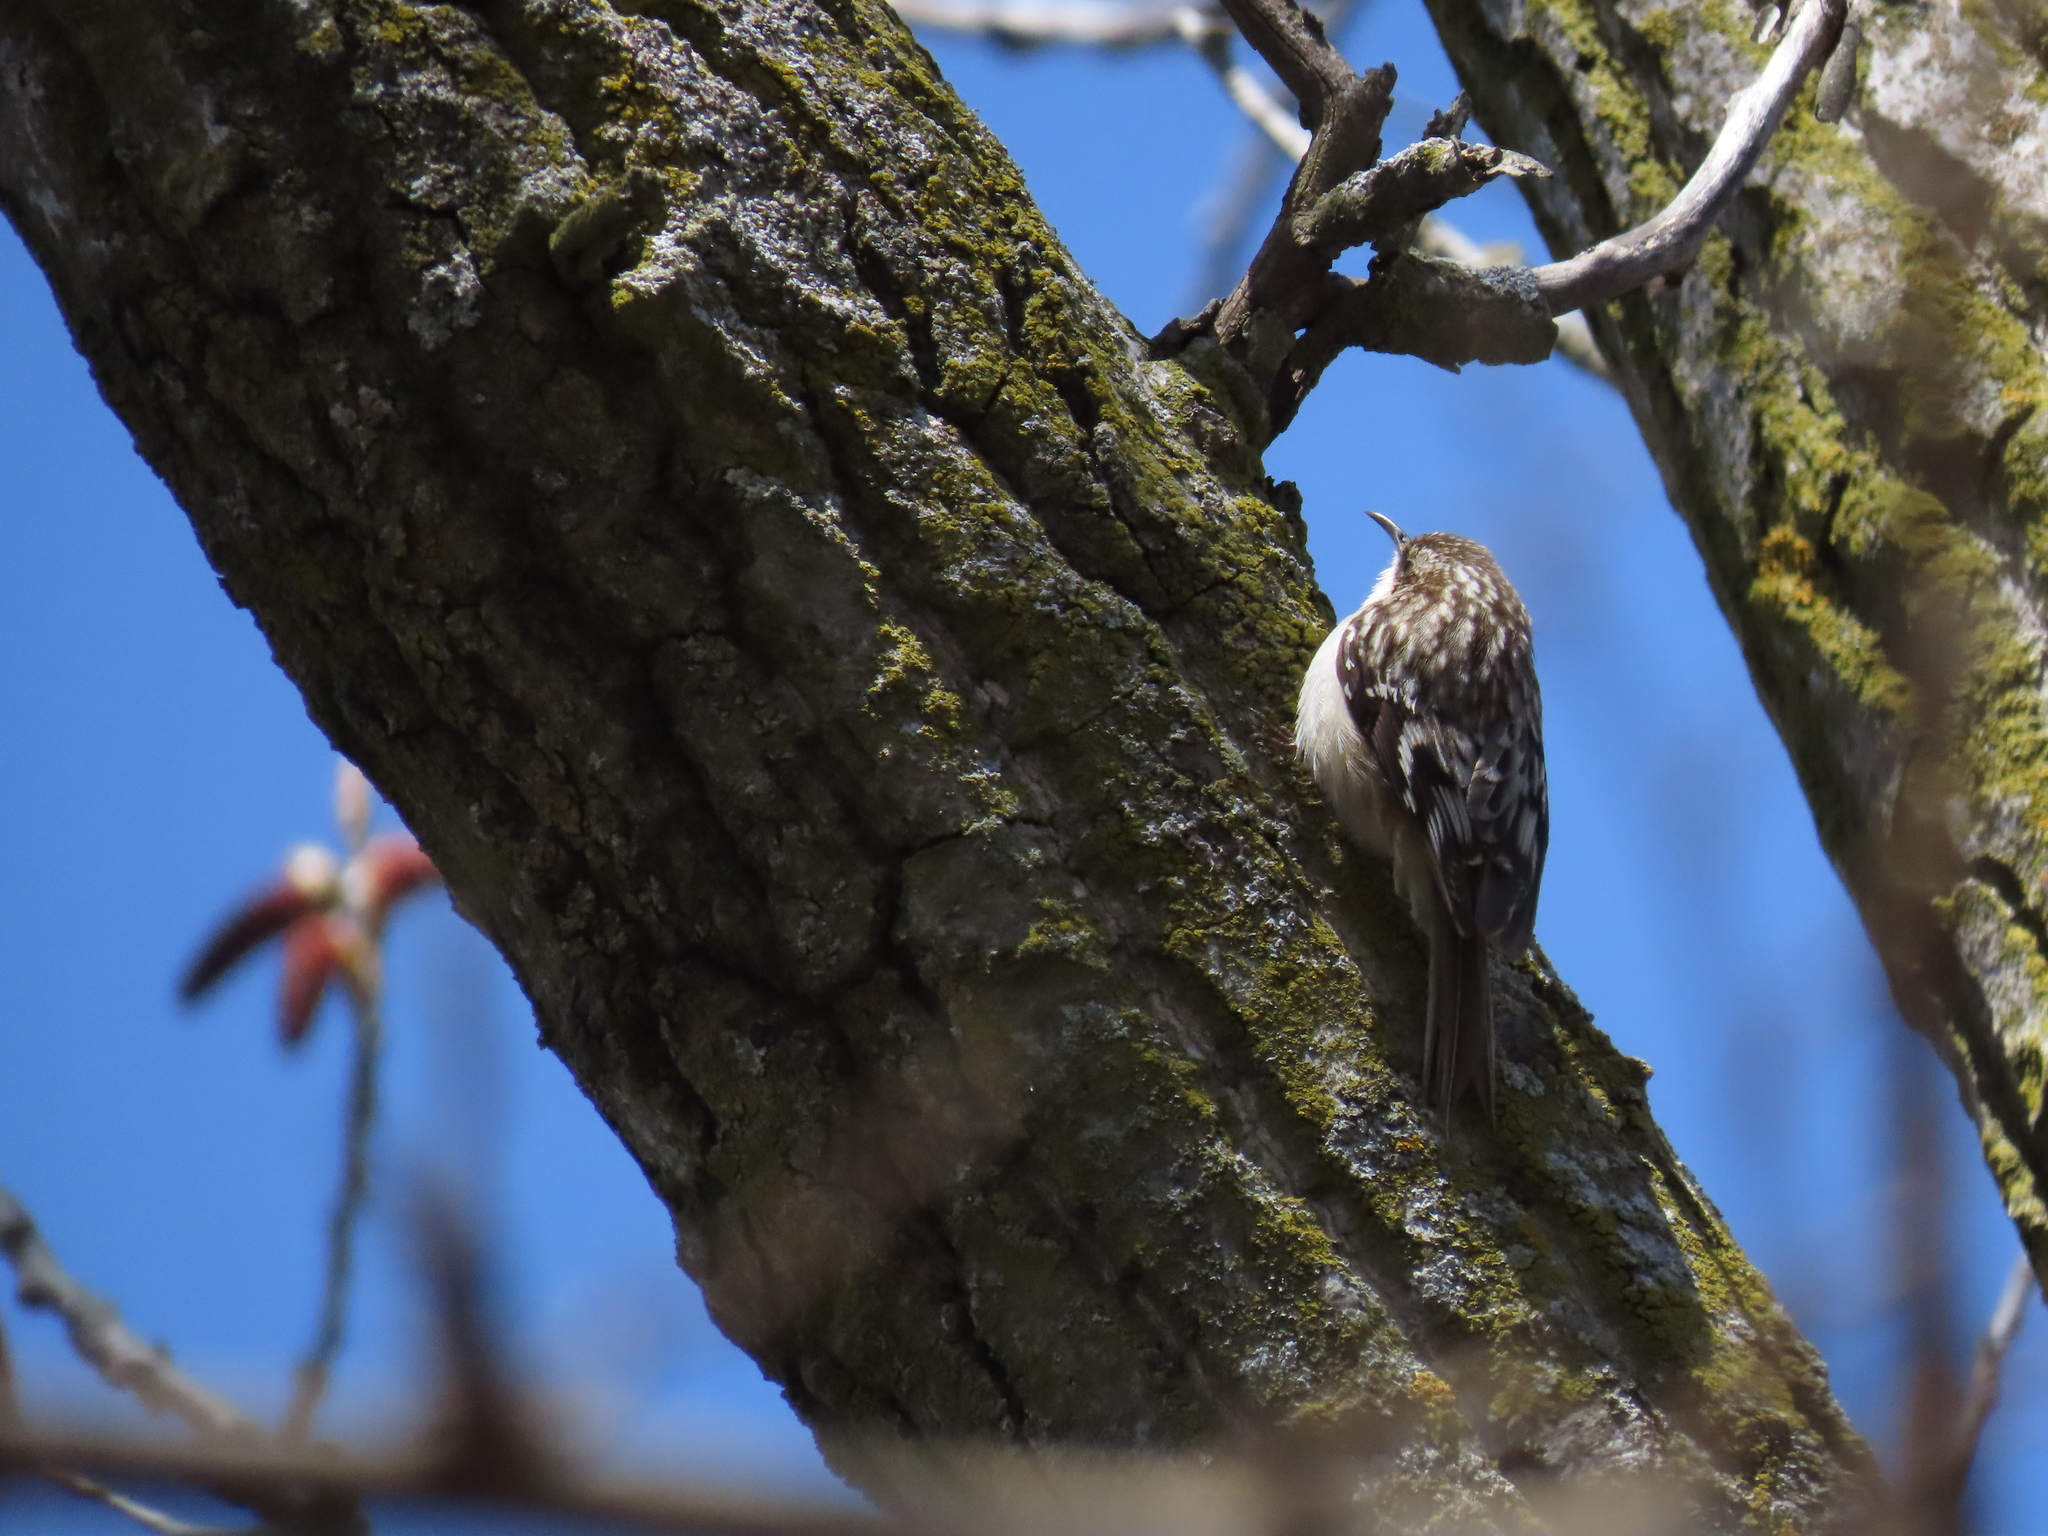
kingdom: Animalia
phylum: Chordata
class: Aves
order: Passeriformes
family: Certhiidae
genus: Certhia
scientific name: Certhia americana
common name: Brown creeper
